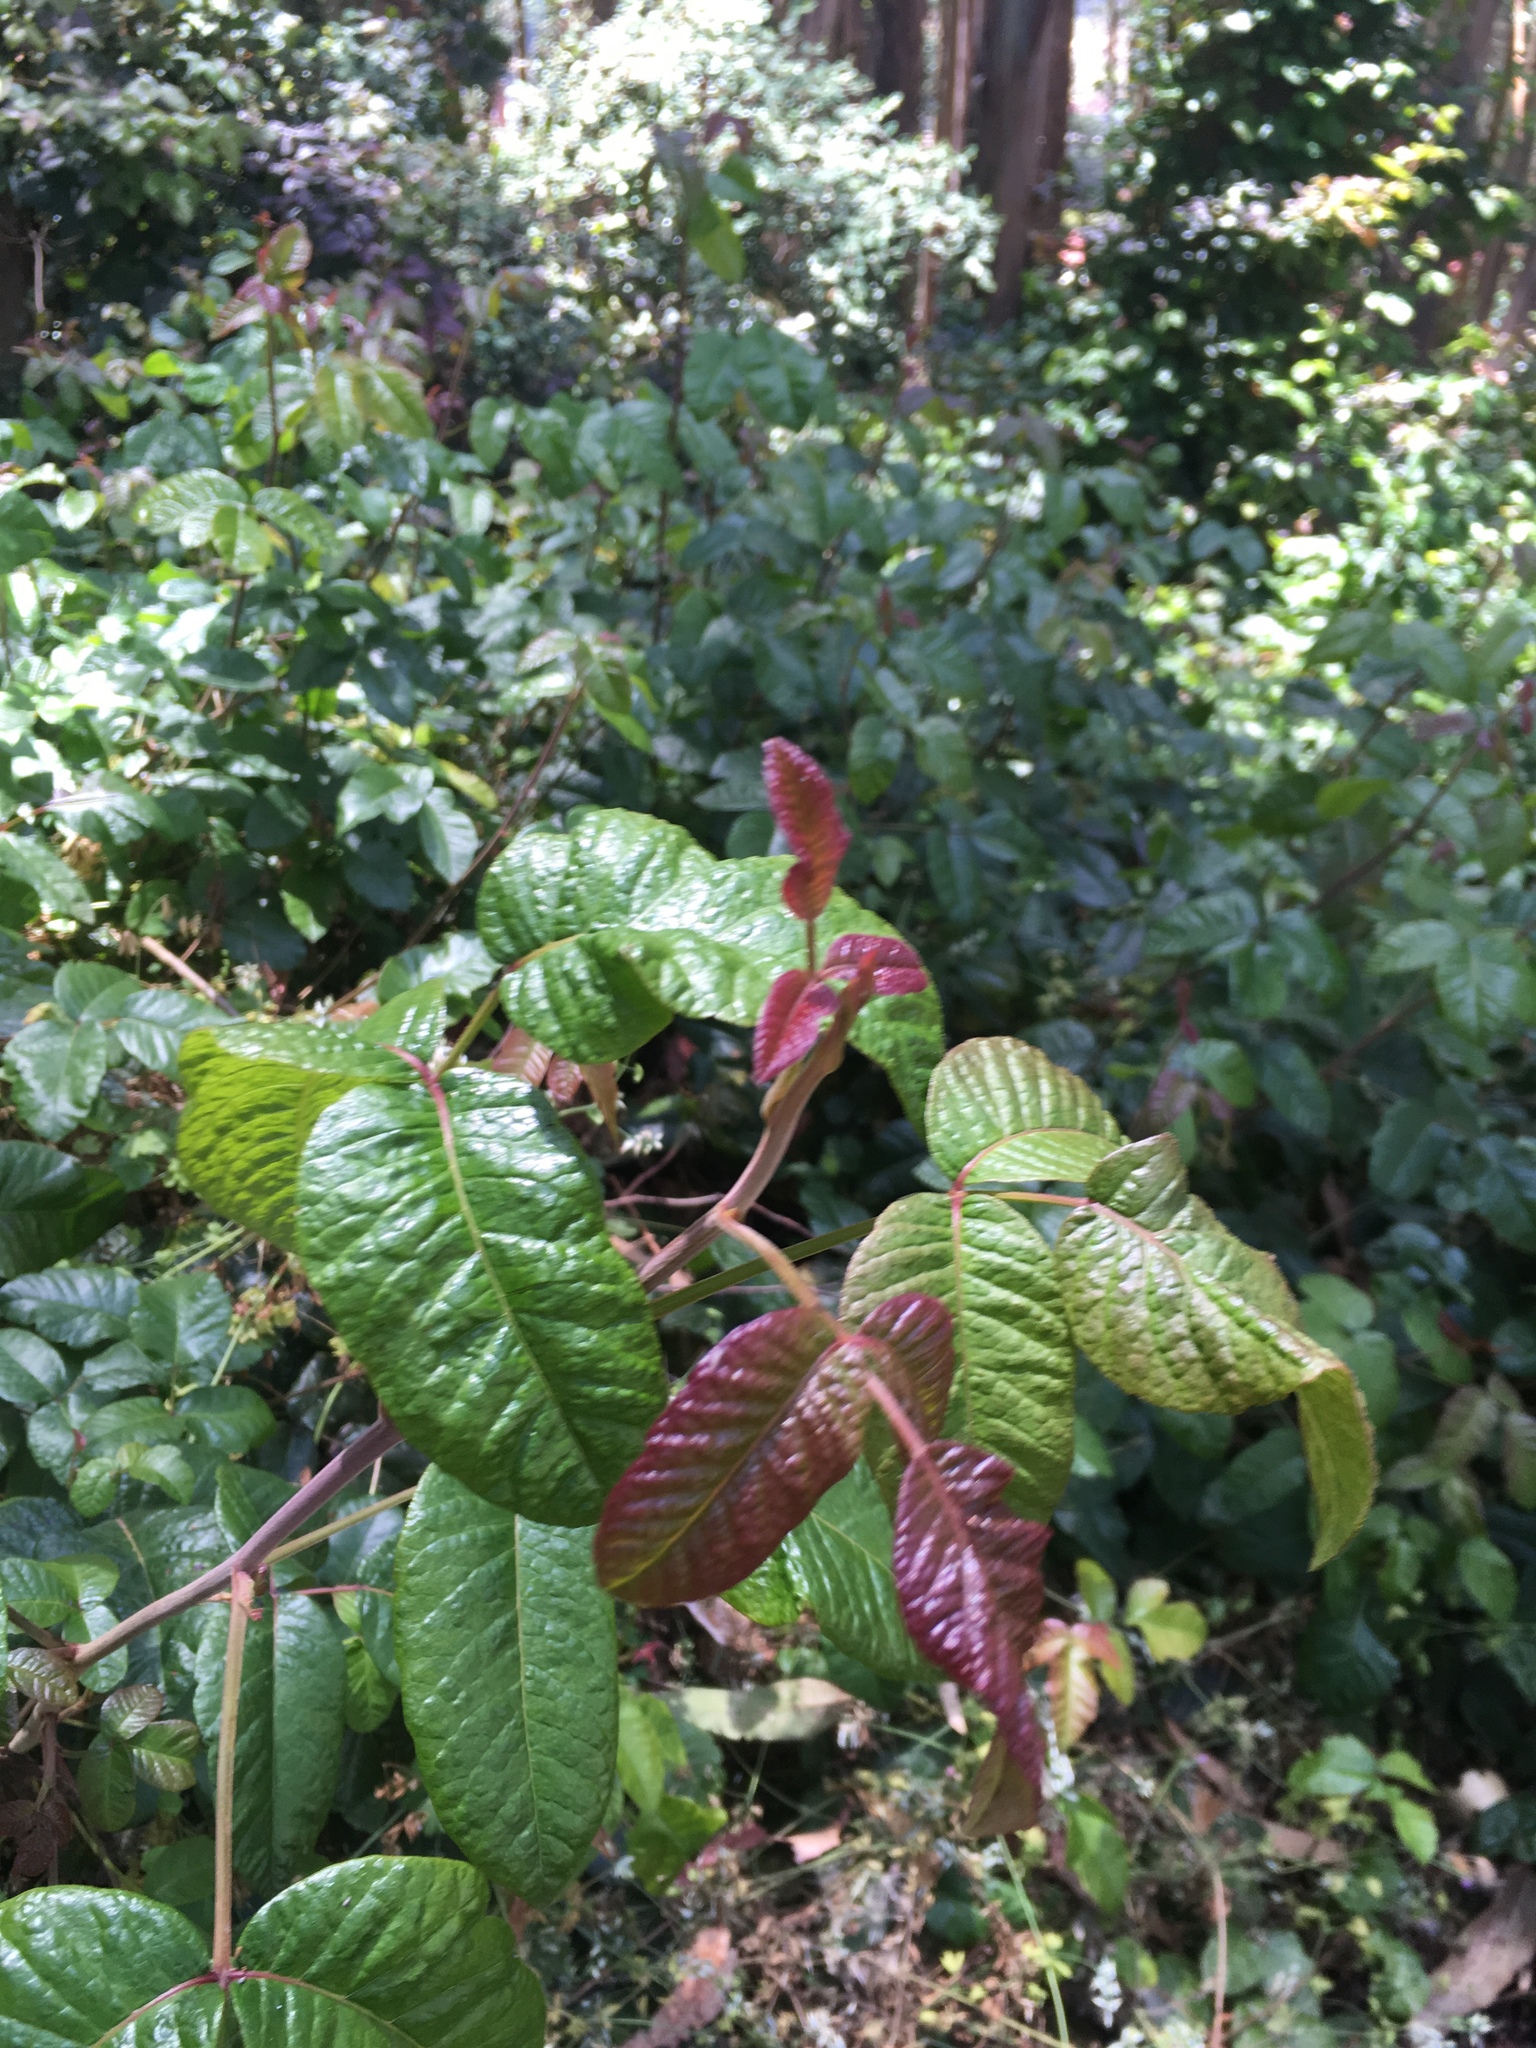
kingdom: Plantae
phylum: Tracheophyta
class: Magnoliopsida
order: Sapindales
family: Anacardiaceae
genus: Toxicodendron
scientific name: Toxicodendron diversilobum
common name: Pacific poison-oak
